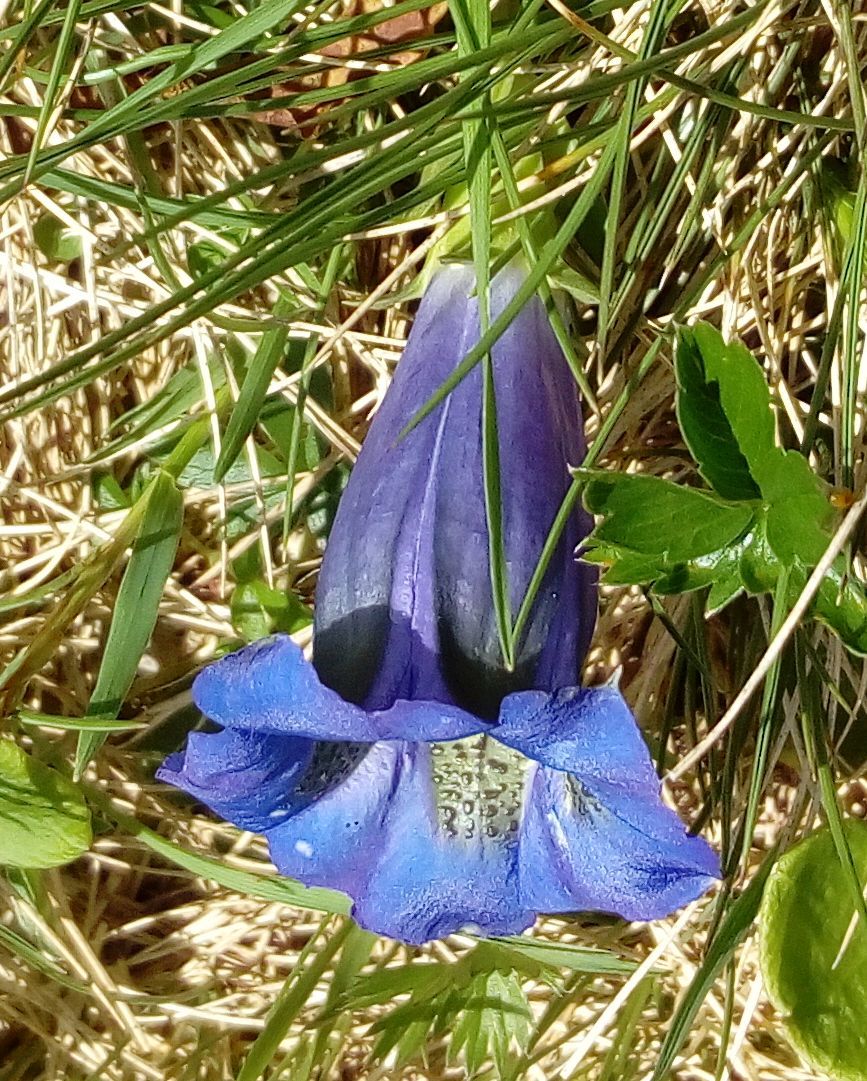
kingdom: Plantae
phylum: Tracheophyta
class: Magnoliopsida
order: Gentianales
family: Gentianaceae
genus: Gentiana
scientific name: Gentiana acaulis
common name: Trumpet gentian
